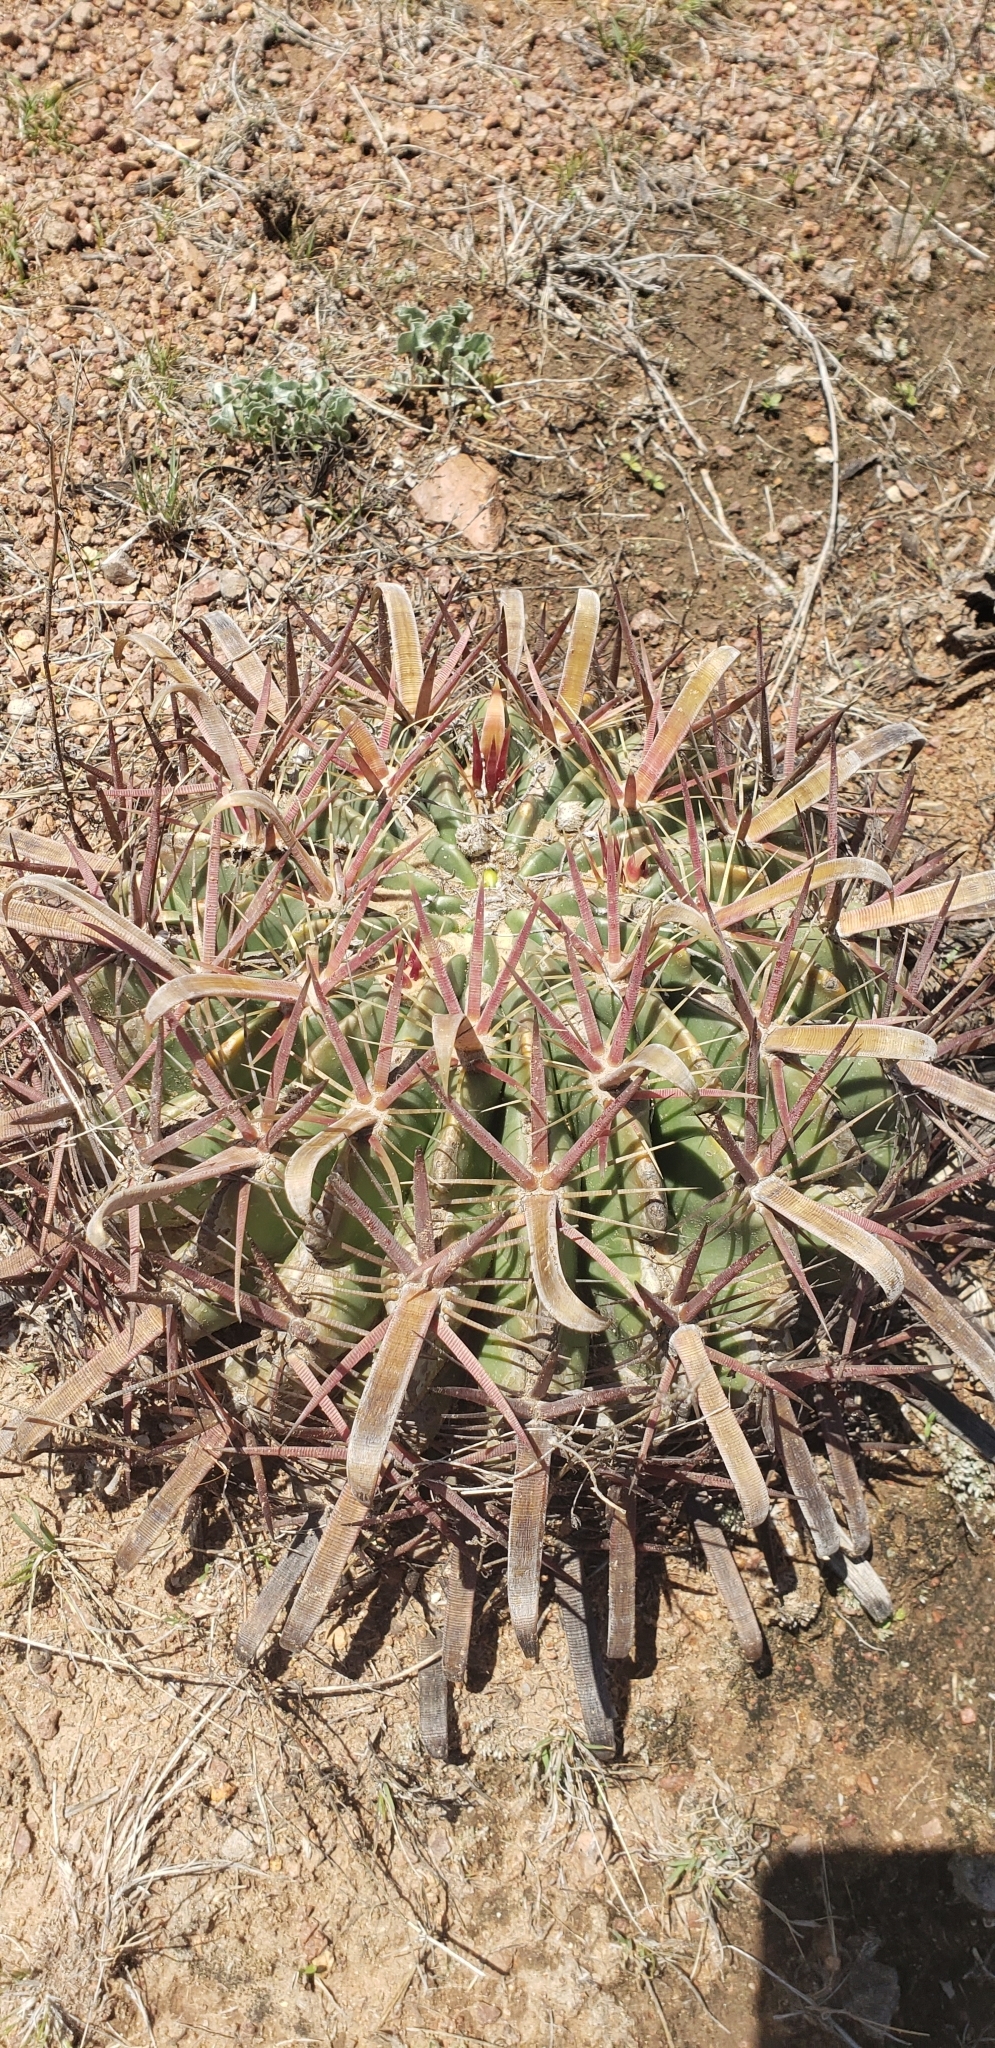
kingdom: Plantae
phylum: Tracheophyta
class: Magnoliopsida
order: Caryophyllales
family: Cactaceae
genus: Ferocactus
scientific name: Ferocactus latispinus
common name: Devil's-tongue cactus
